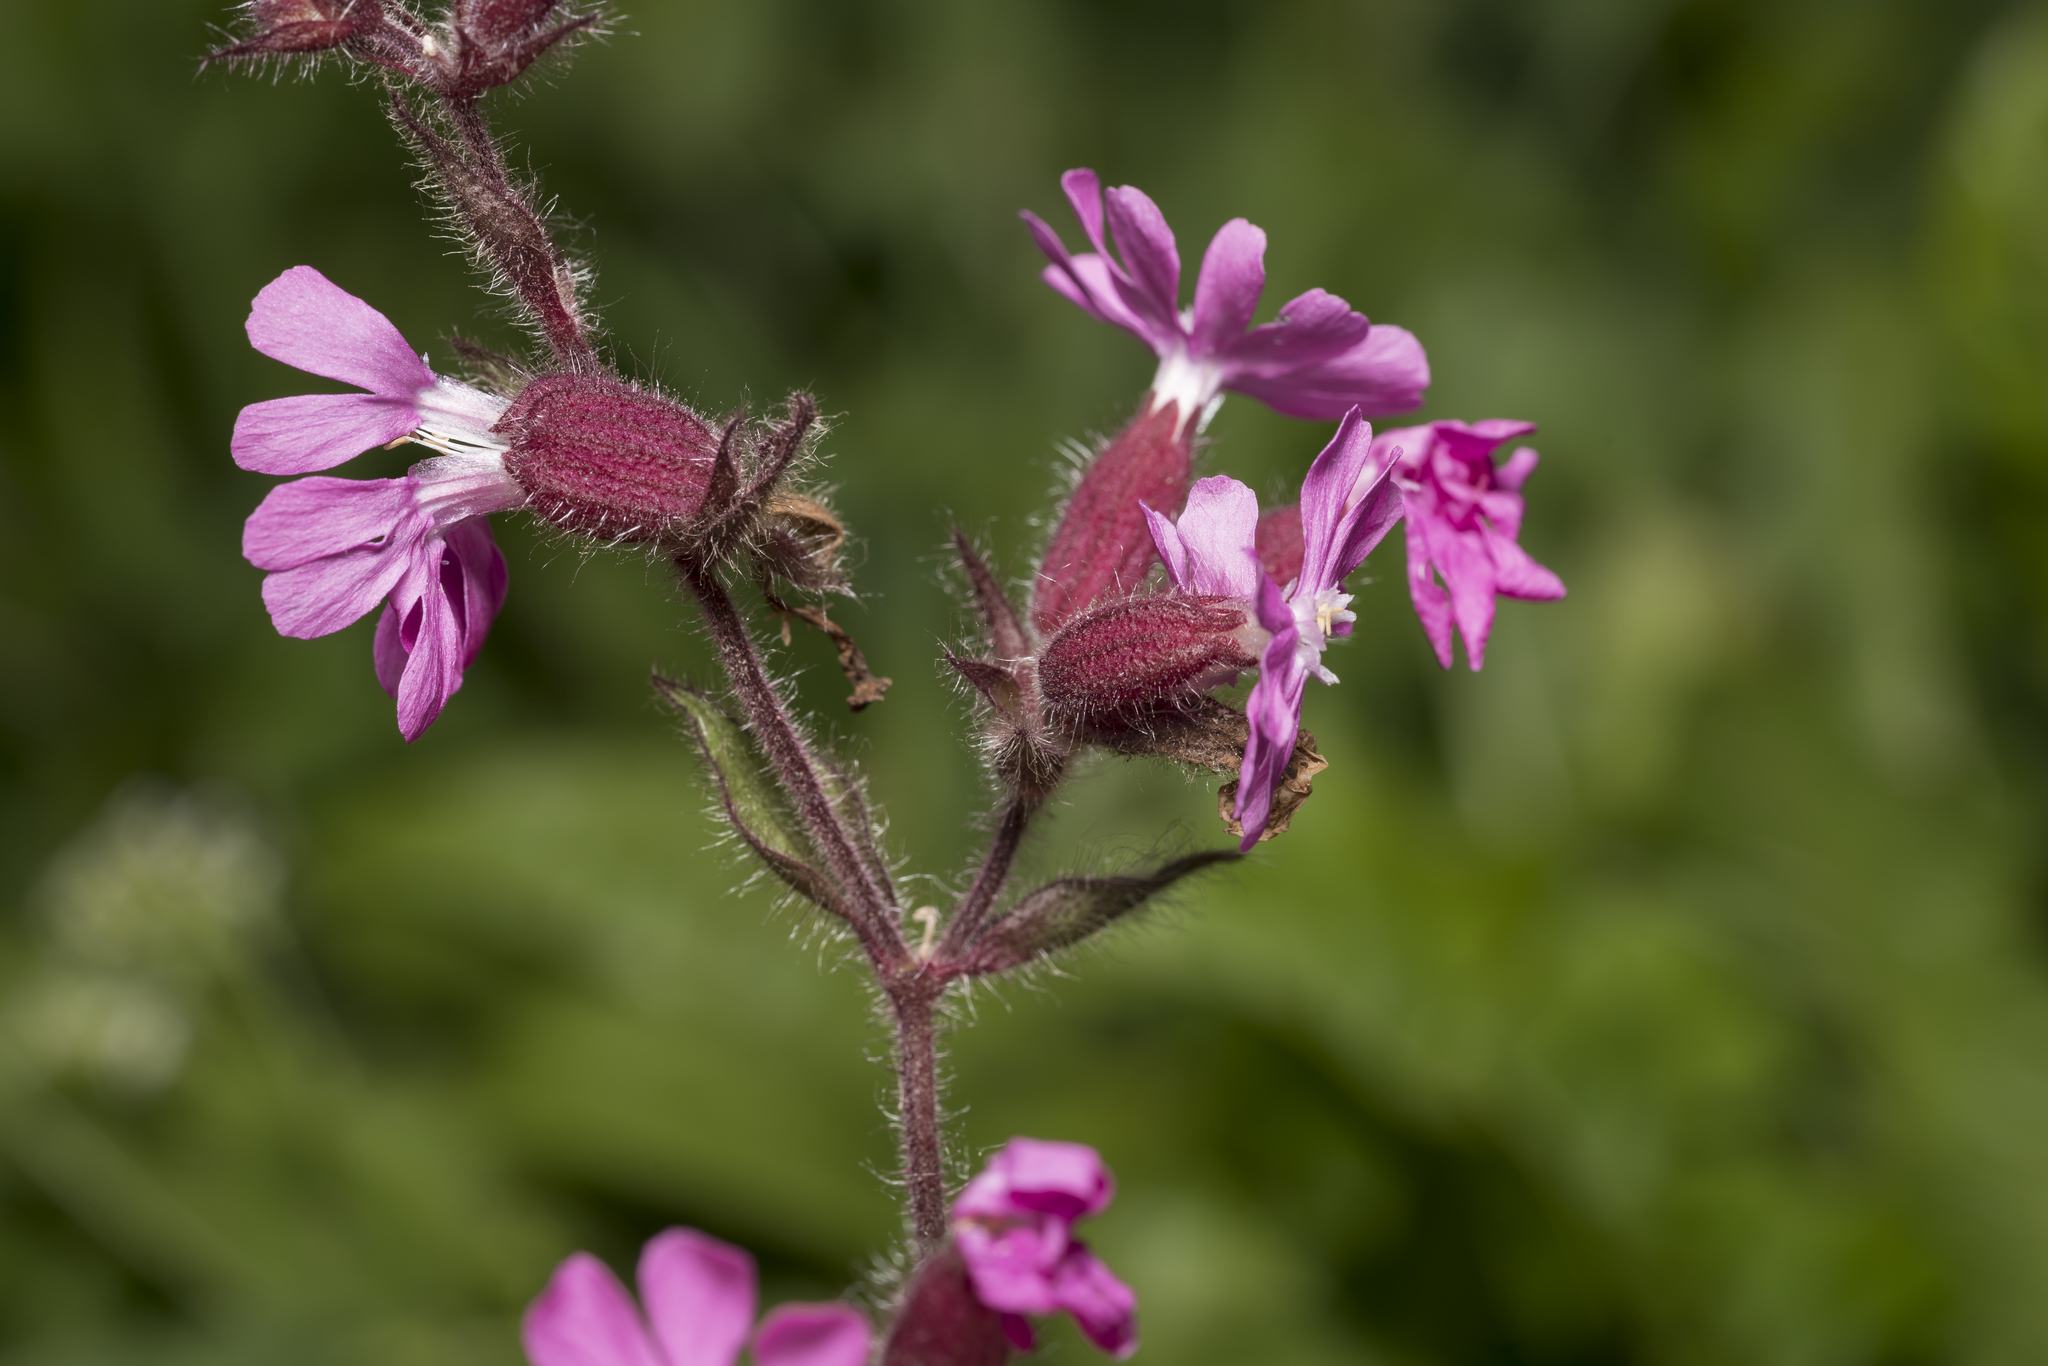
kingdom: Plantae
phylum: Tracheophyta
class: Magnoliopsida
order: Caryophyllales
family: Caryophyllaceae
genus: Silene
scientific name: Silene dioica
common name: Red campion
